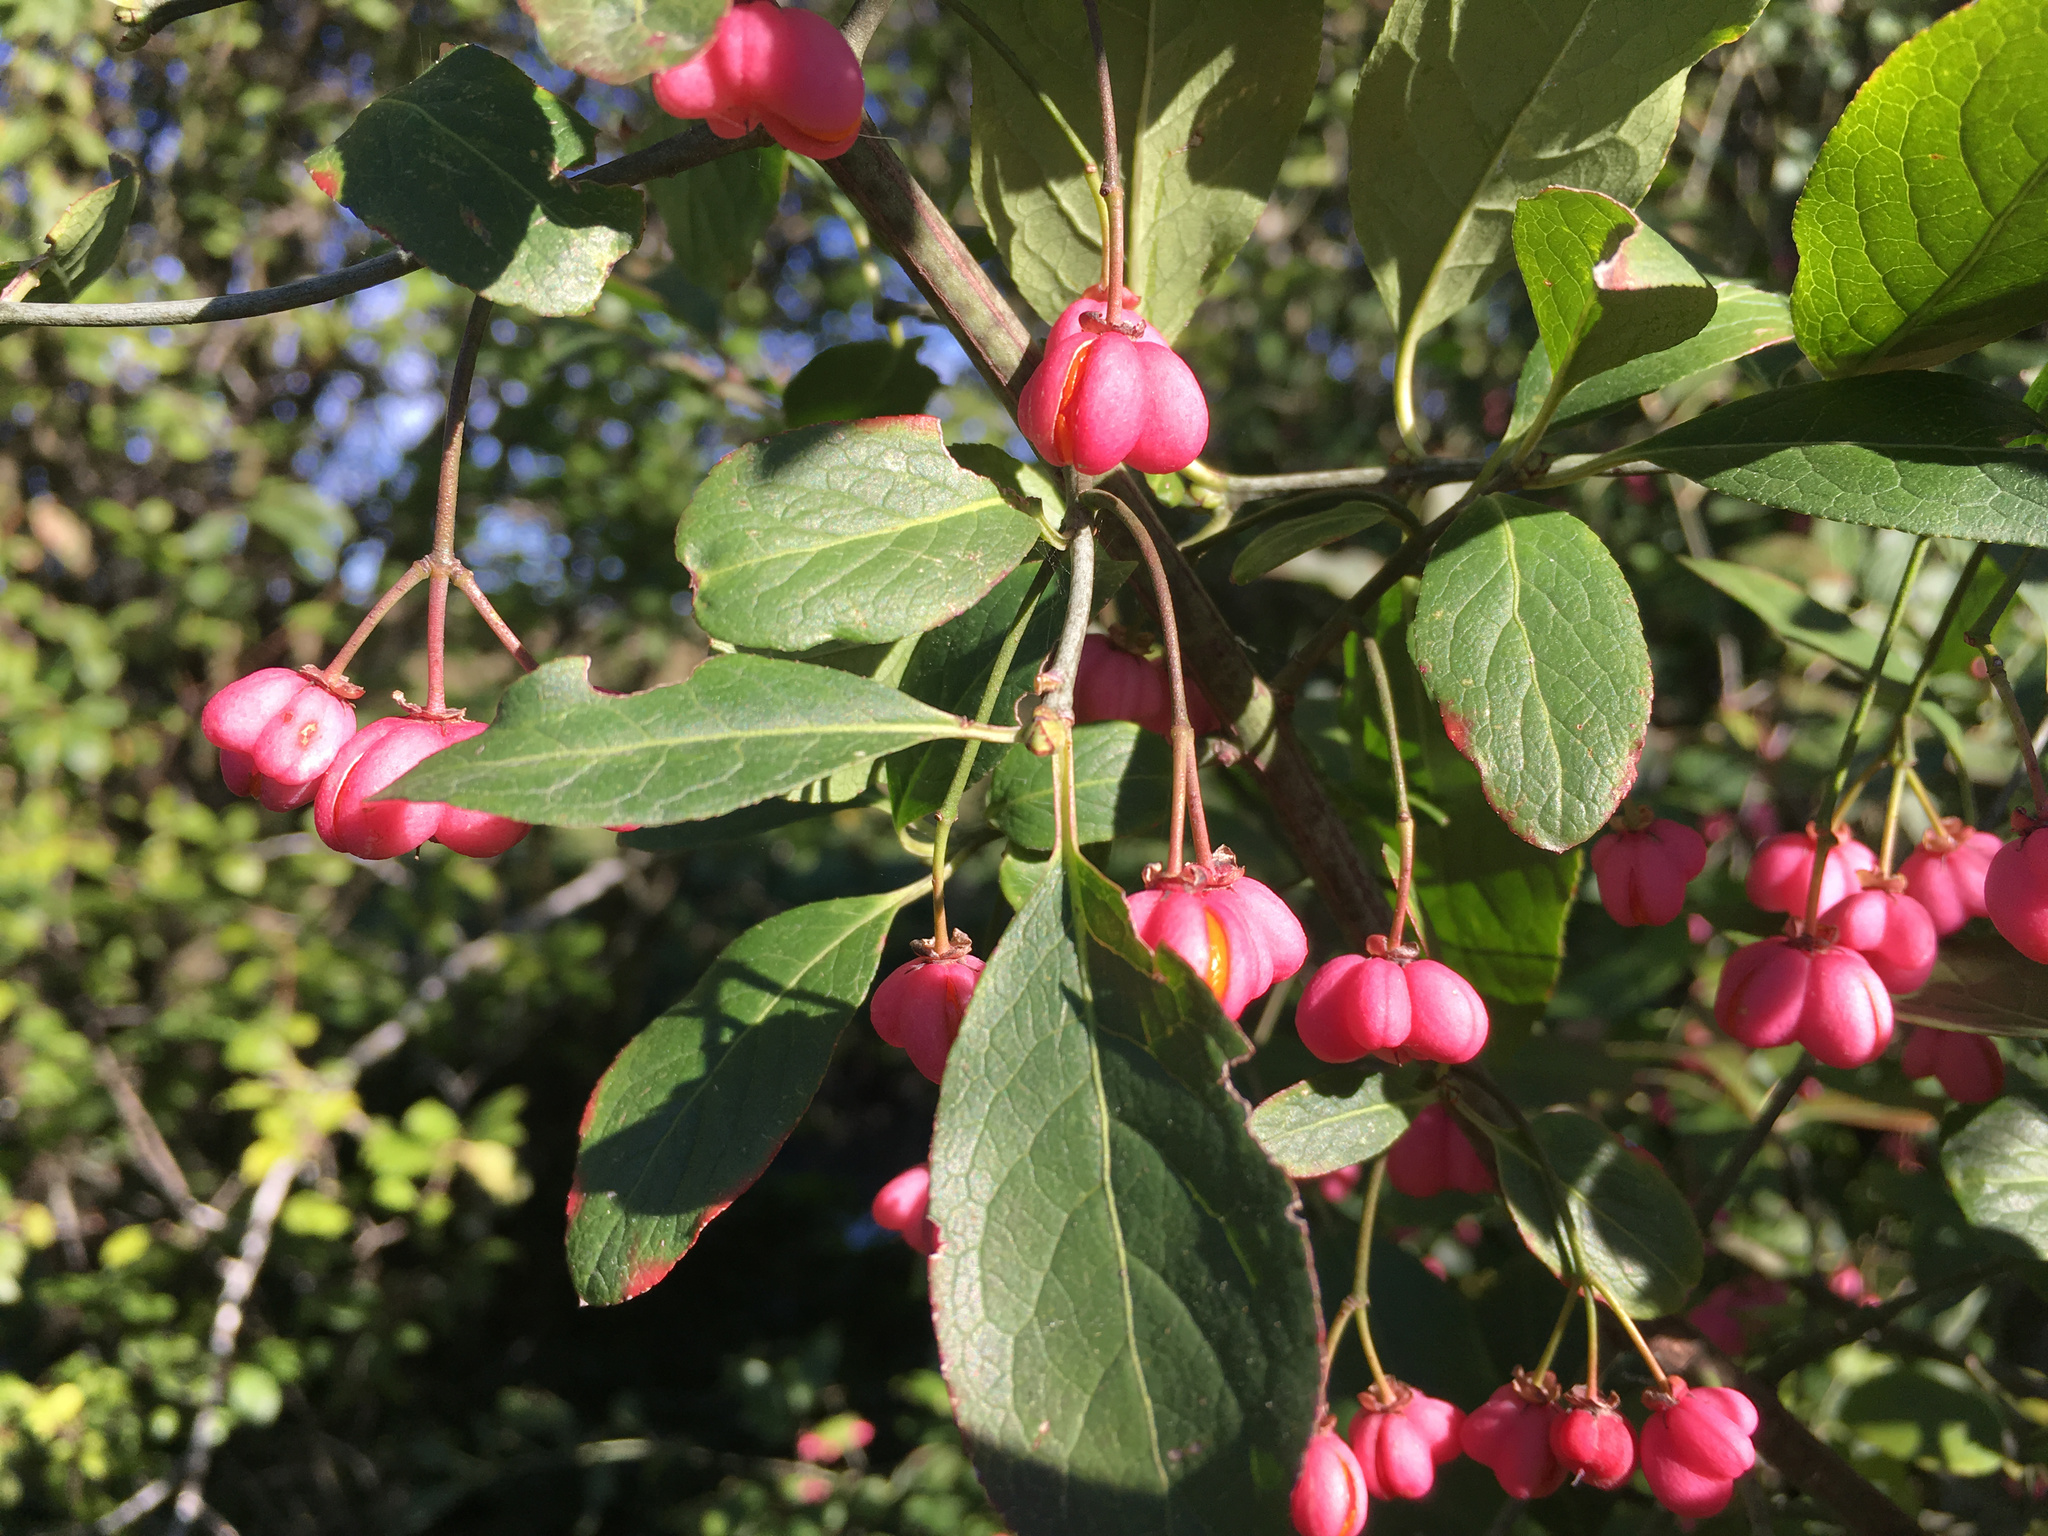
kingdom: Plantae
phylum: Tracheophyta
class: Magnoliopsida
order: Celastrales
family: Celastraceae
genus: Euonymus
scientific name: Euonymus europaeus
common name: Spindle
